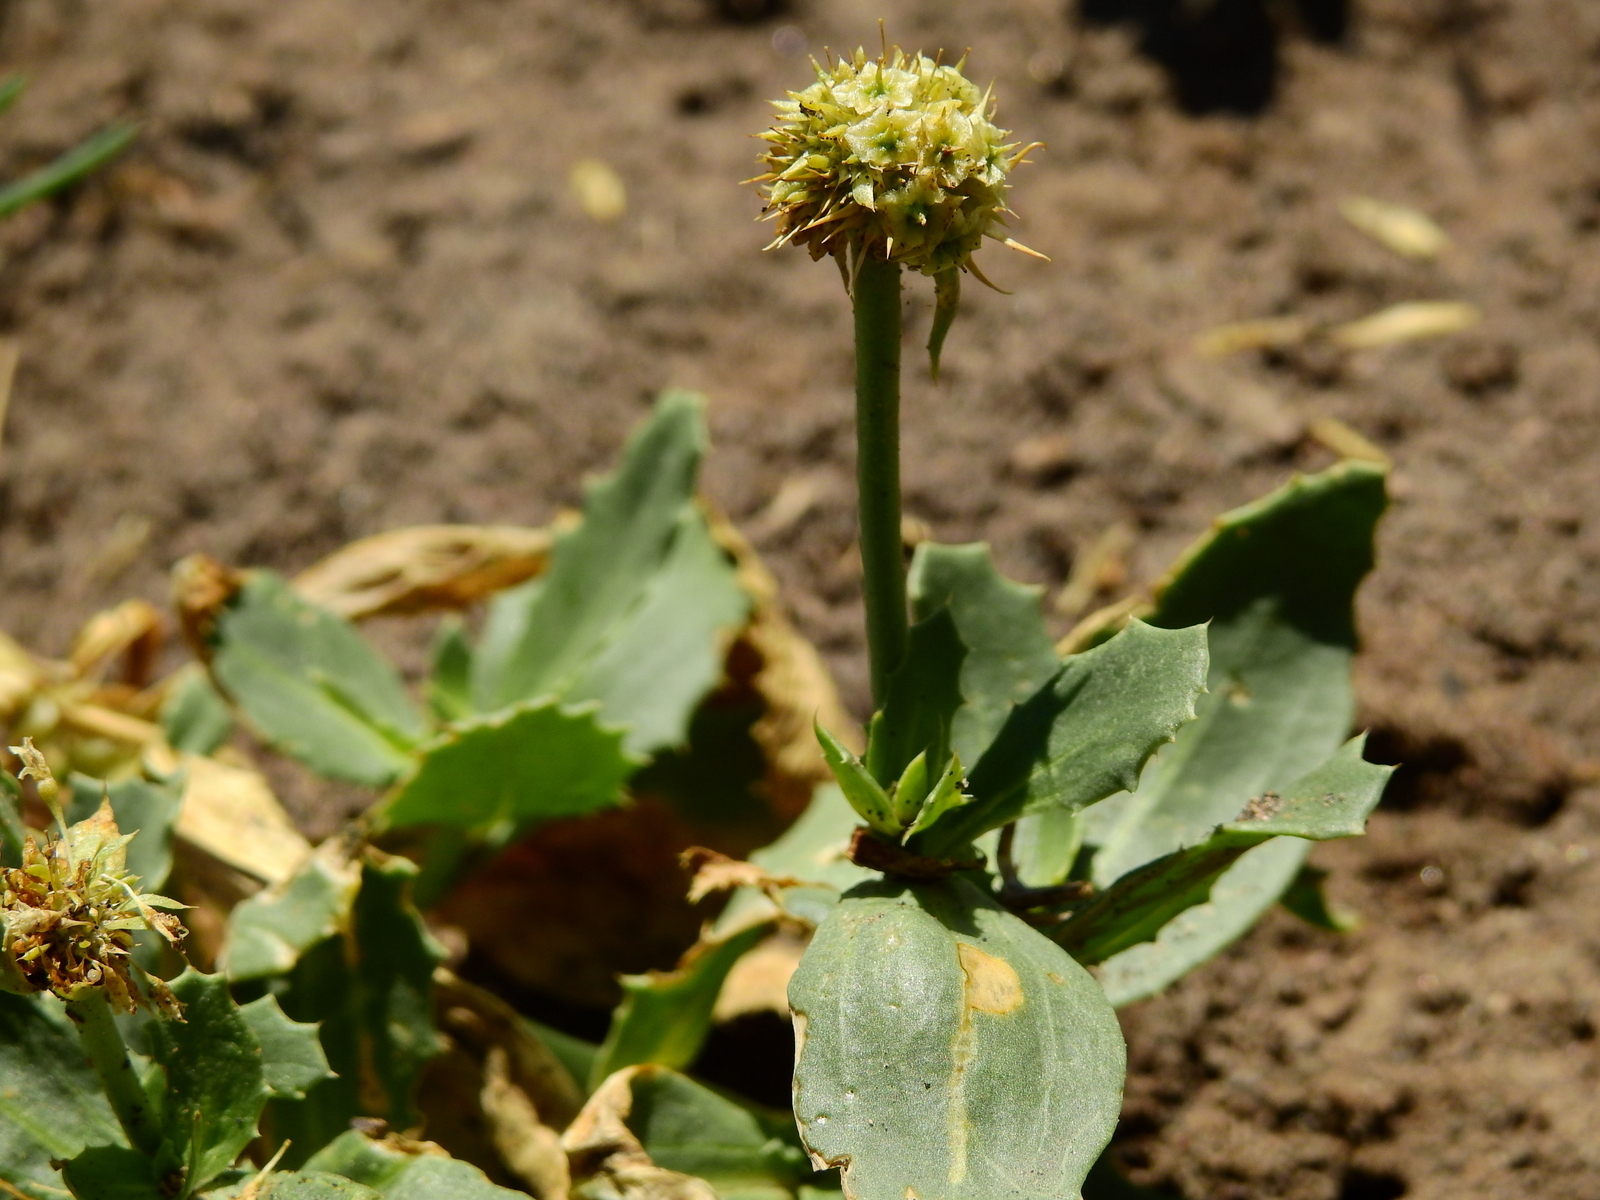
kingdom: Plantae
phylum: Tracheophyta
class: Magnoliopsida
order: Asterales
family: Calyceraceae
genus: Calycera
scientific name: Calycera crassifolia
